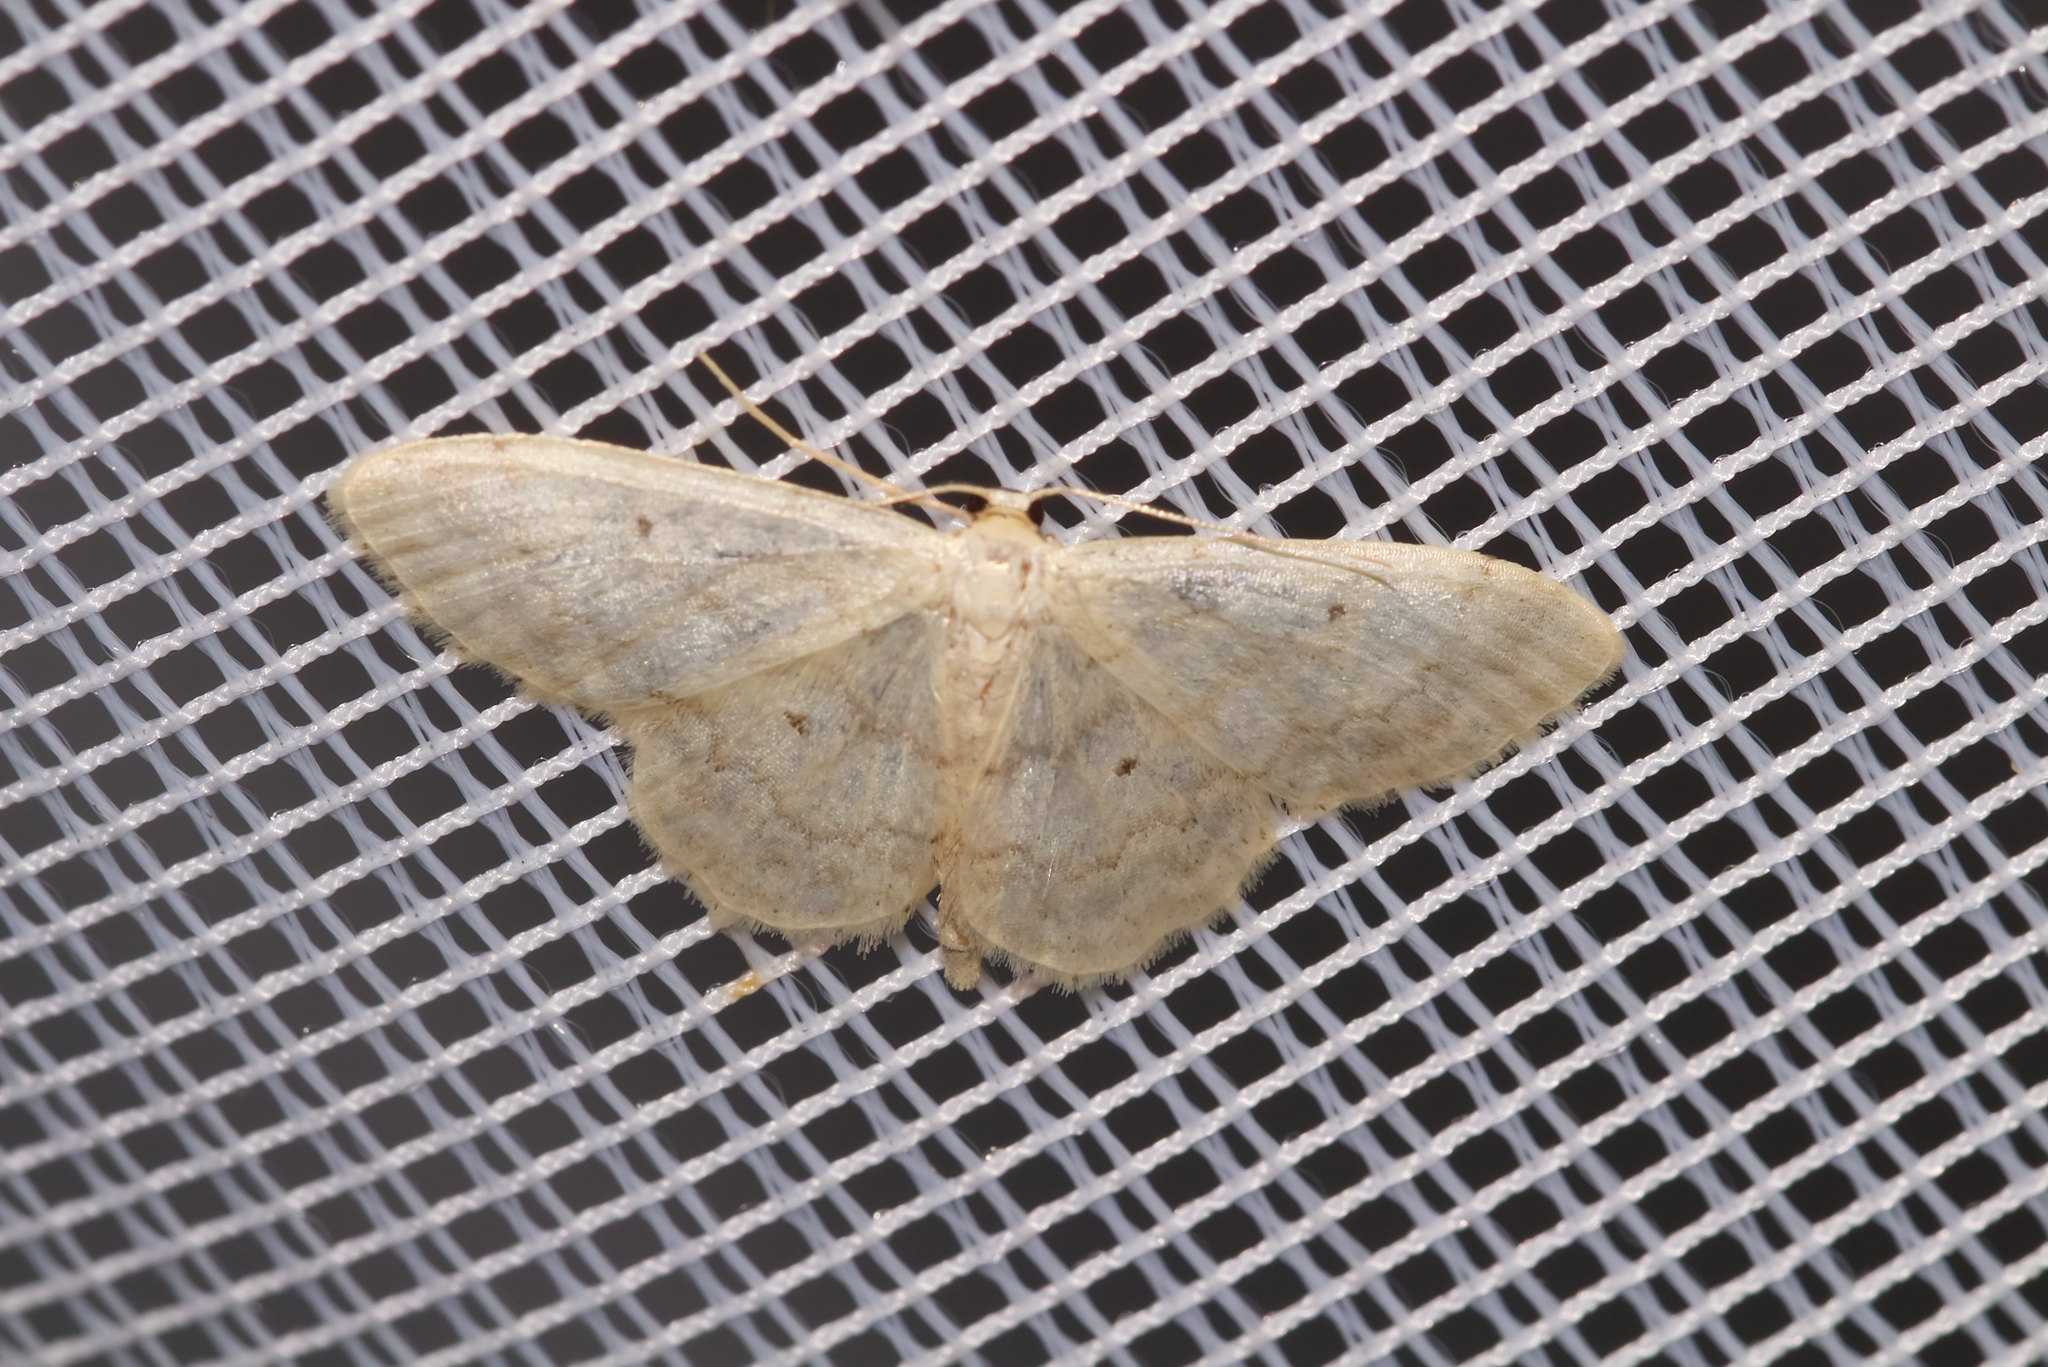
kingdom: Animalia
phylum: Arthropoda
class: Insecta
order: Lepidoptera
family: Geometridae
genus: Idaea
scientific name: Idaea biselata
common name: Small fan-footed wave
